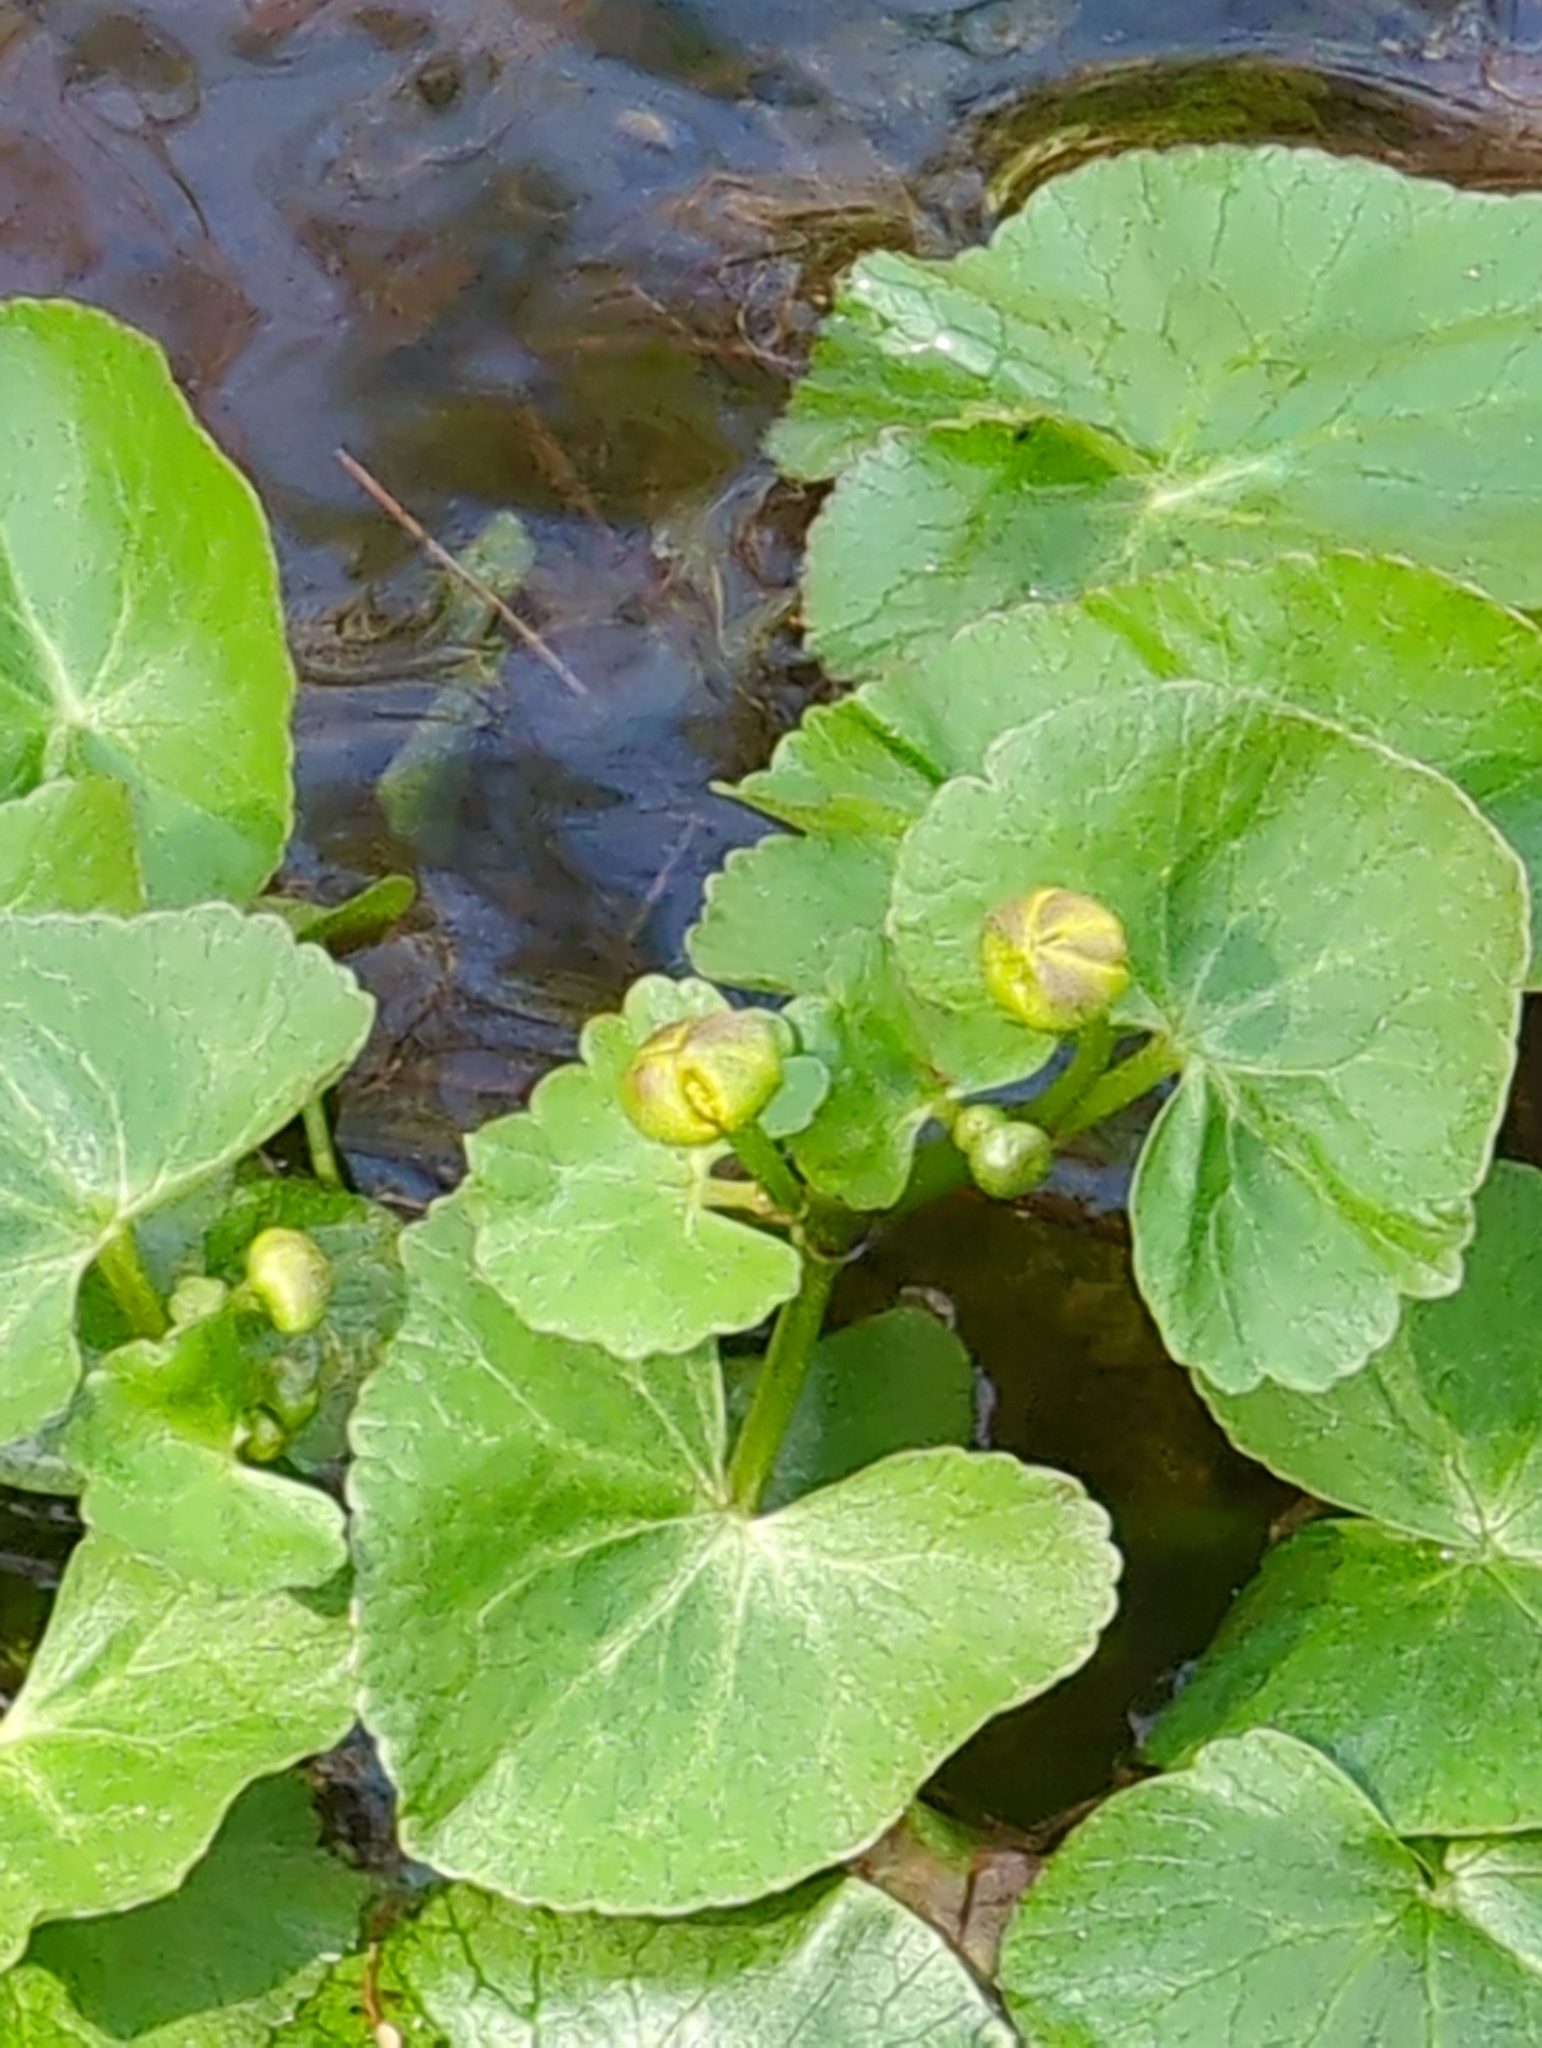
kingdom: Plantae
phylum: Tracheophyta
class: Magnoliopsida
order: Ranunculales
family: Ranunculaceae
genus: Caltha
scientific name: Caltha palustris
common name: Marsh marigold
